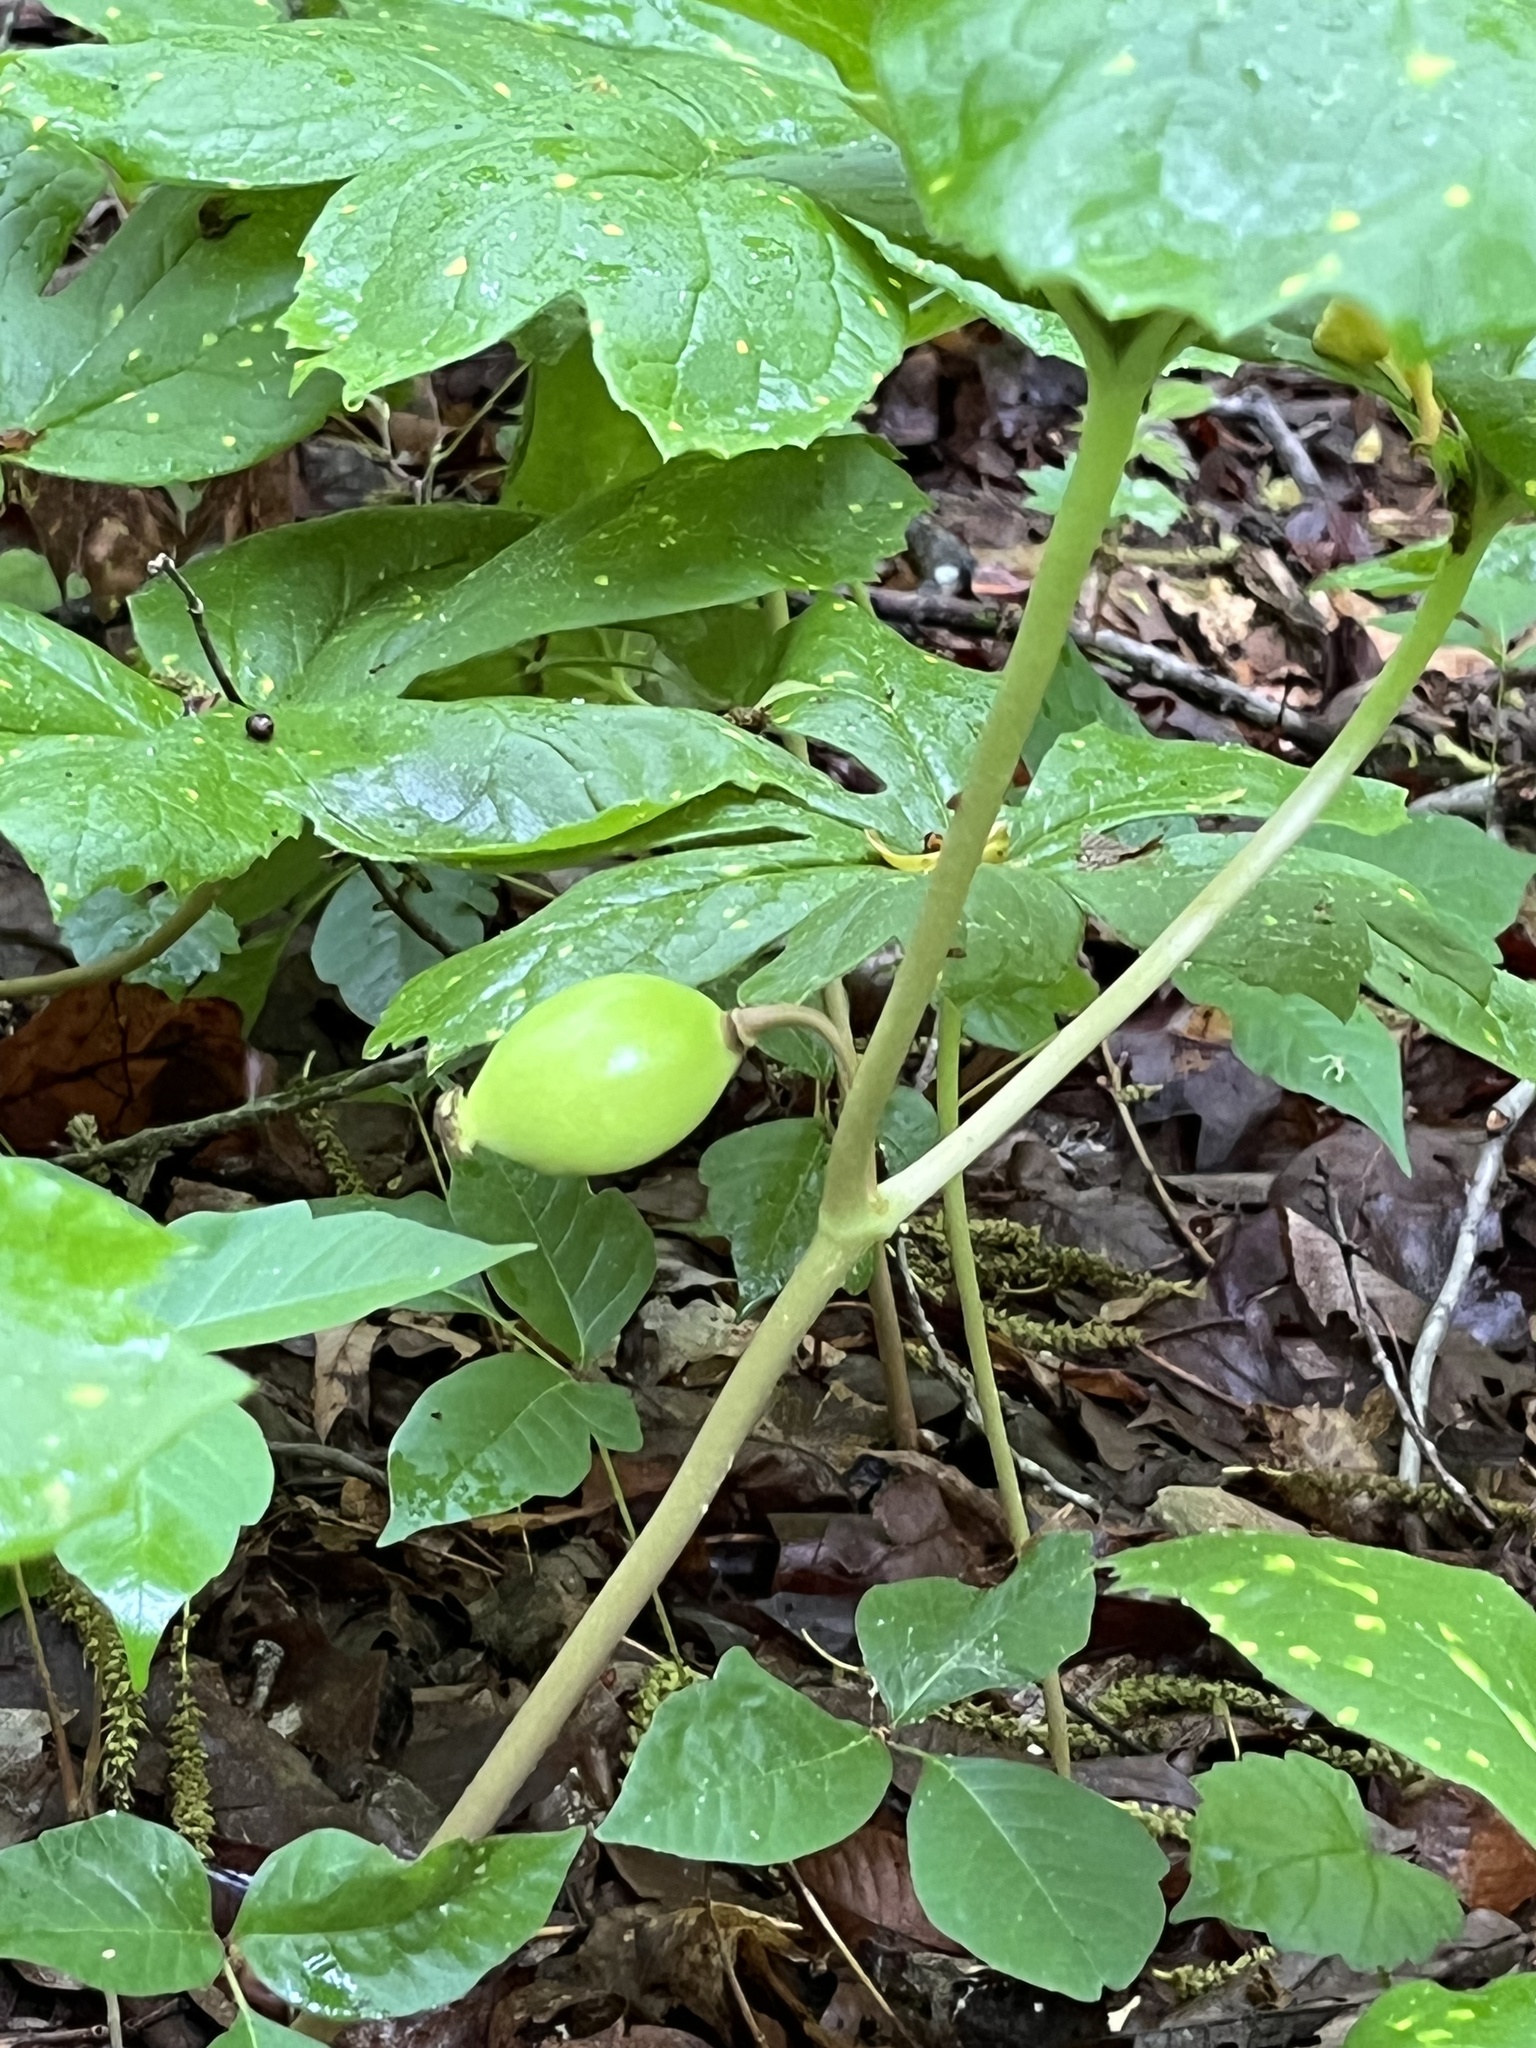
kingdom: Plantae
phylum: Tracheophyta
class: Magnoliopsida
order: Ranunculales
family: Berberidaceae
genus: Podophyllum
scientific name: Podophyllum peltatum
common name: Wild mandrake
